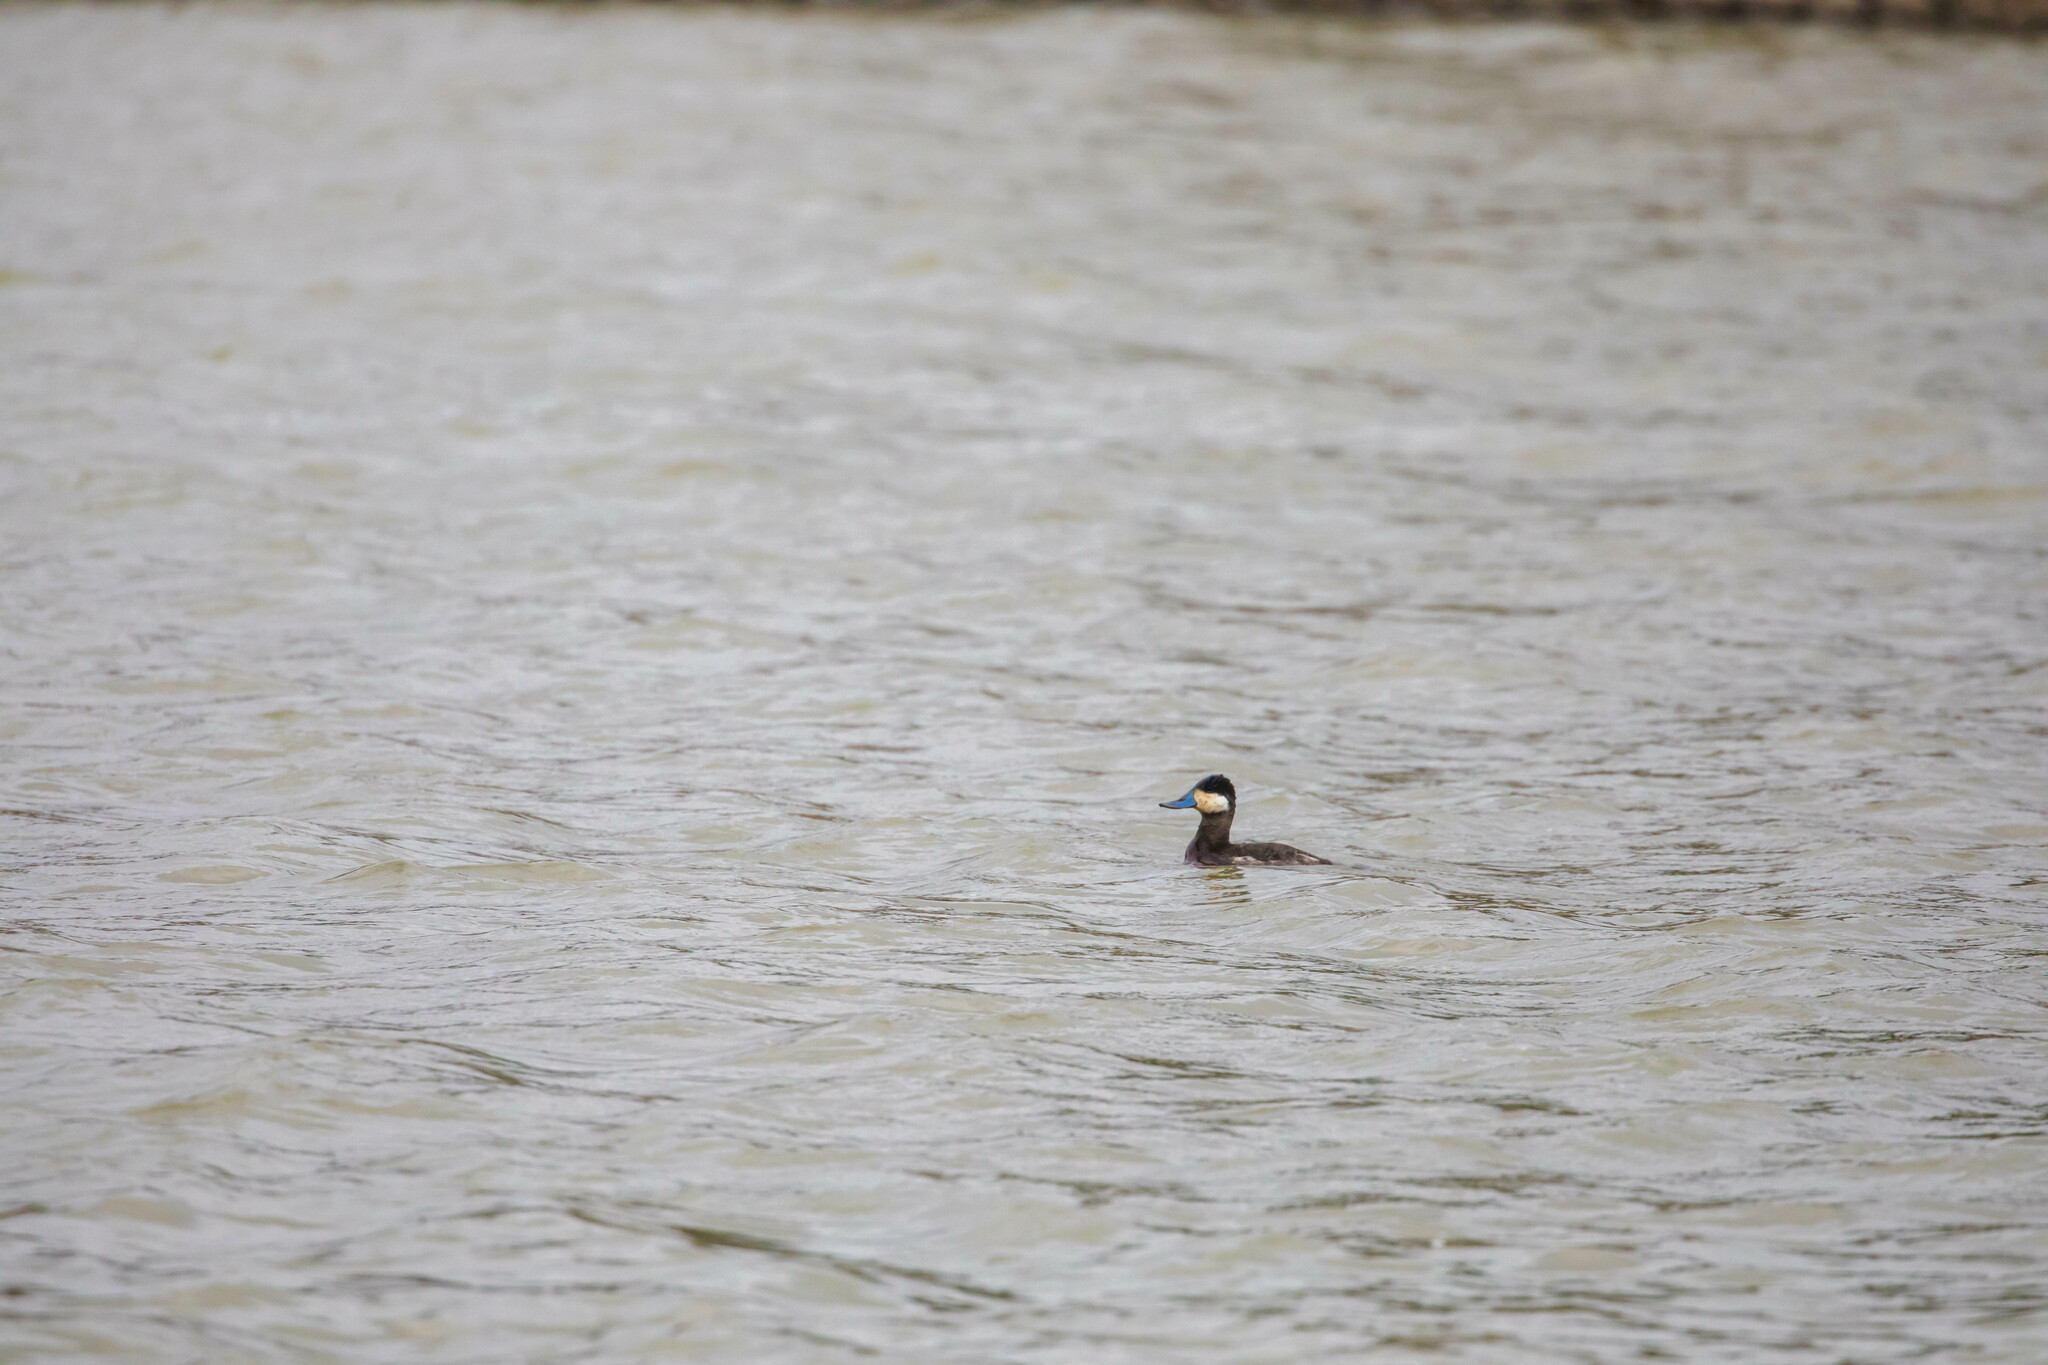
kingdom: Animalia
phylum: Chordata
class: Aves
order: Anseriformes
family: Anatidae
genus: Oxyura
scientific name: Oxyura jamaicensis
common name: Ruddy duck
